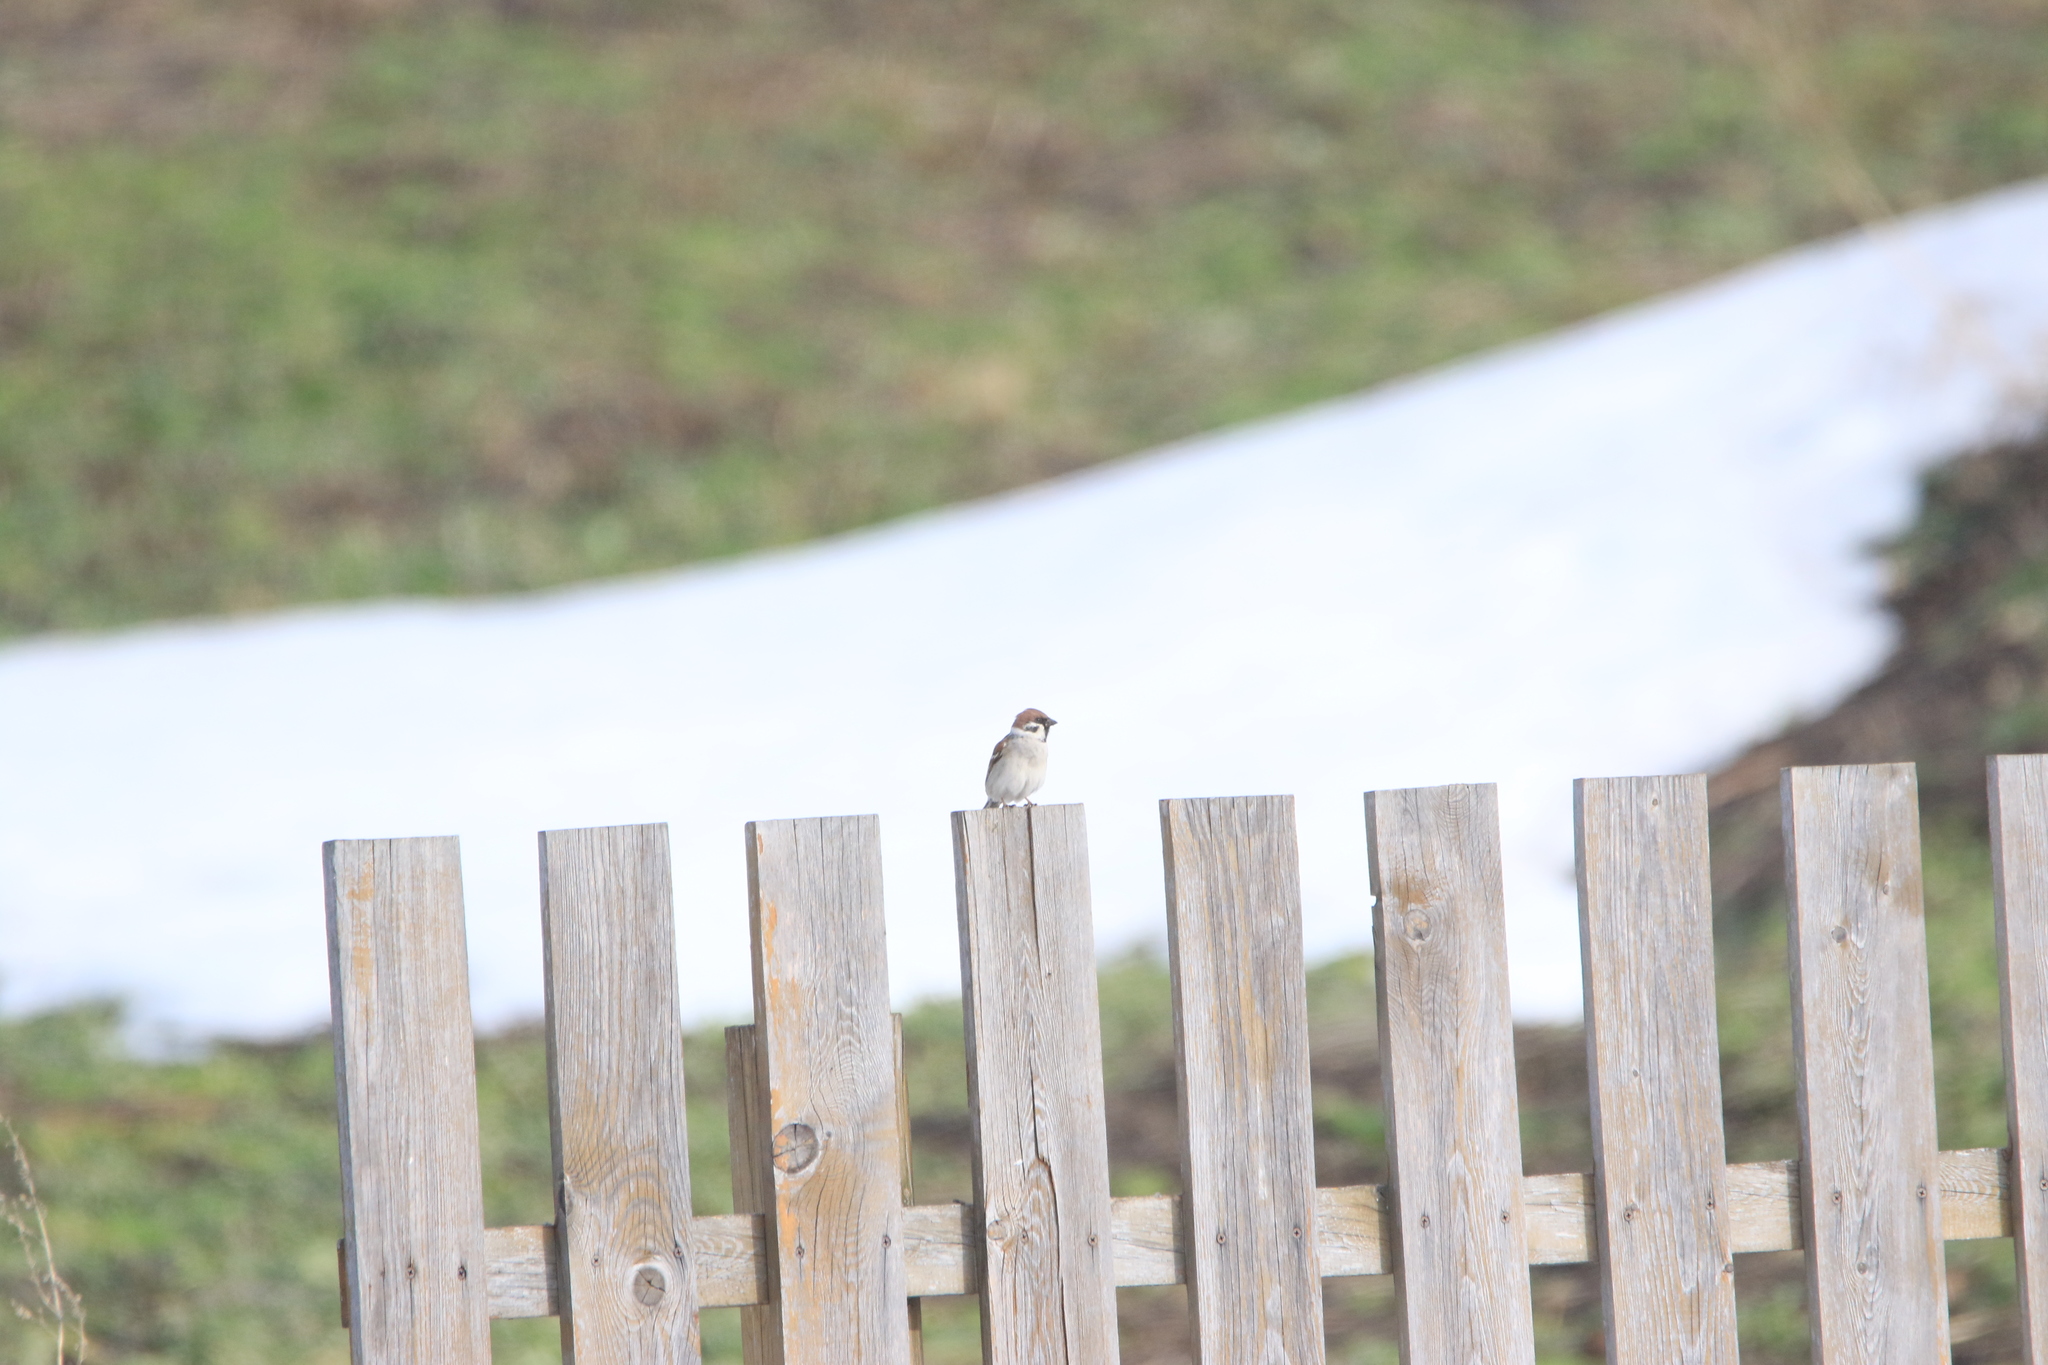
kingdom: Animalia
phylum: Chordata
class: Aves
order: Passeriformes
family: Passeridae
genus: Passer
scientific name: Passer montanus
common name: Eurasian tree sparrow
